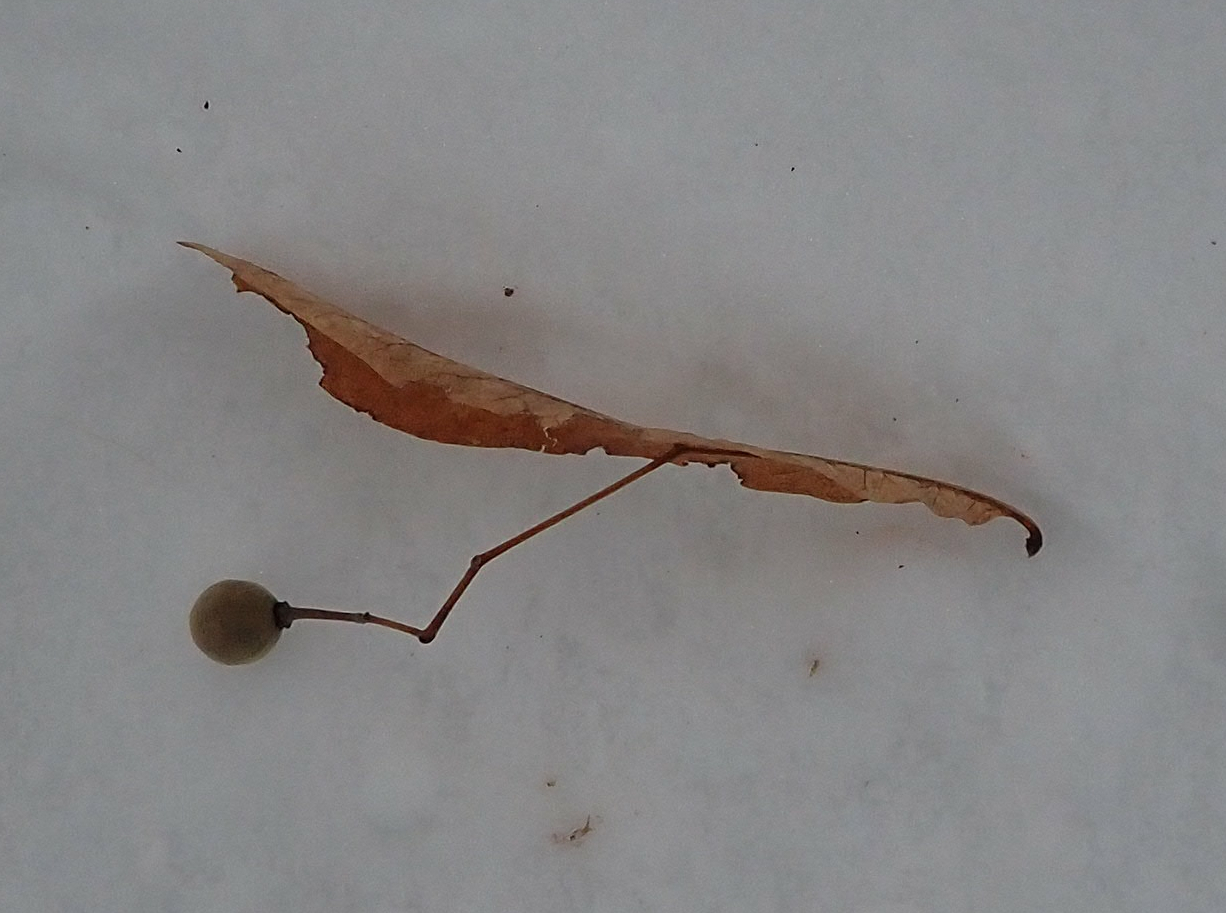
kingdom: Plantae
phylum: Tracheophyta
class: Magnoliopsida
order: Malvales
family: Malvaceae
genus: Tilia
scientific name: Tilia americana
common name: Basswood
